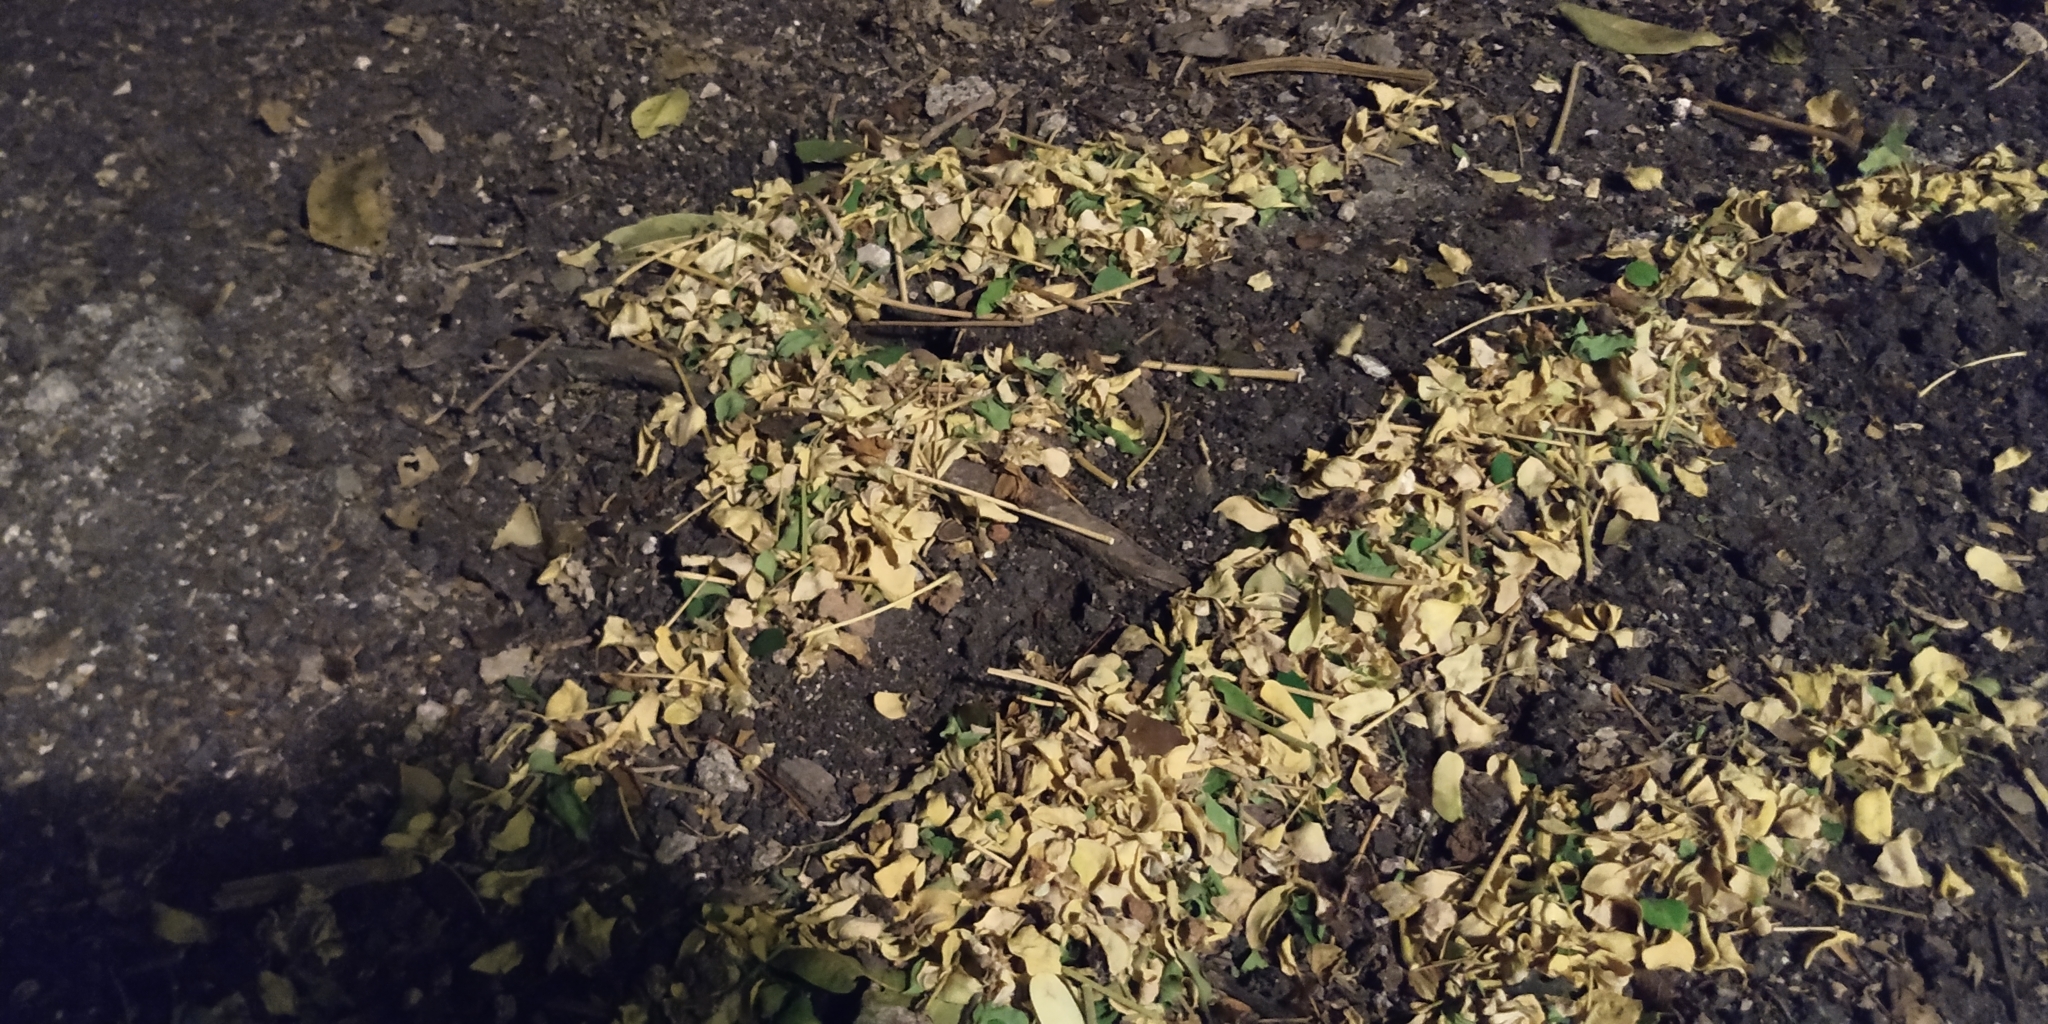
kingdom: Animalia
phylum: Arthropoda
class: Insecta
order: Hymenoptera
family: Formicidae
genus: Atta
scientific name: Atta mexicana
